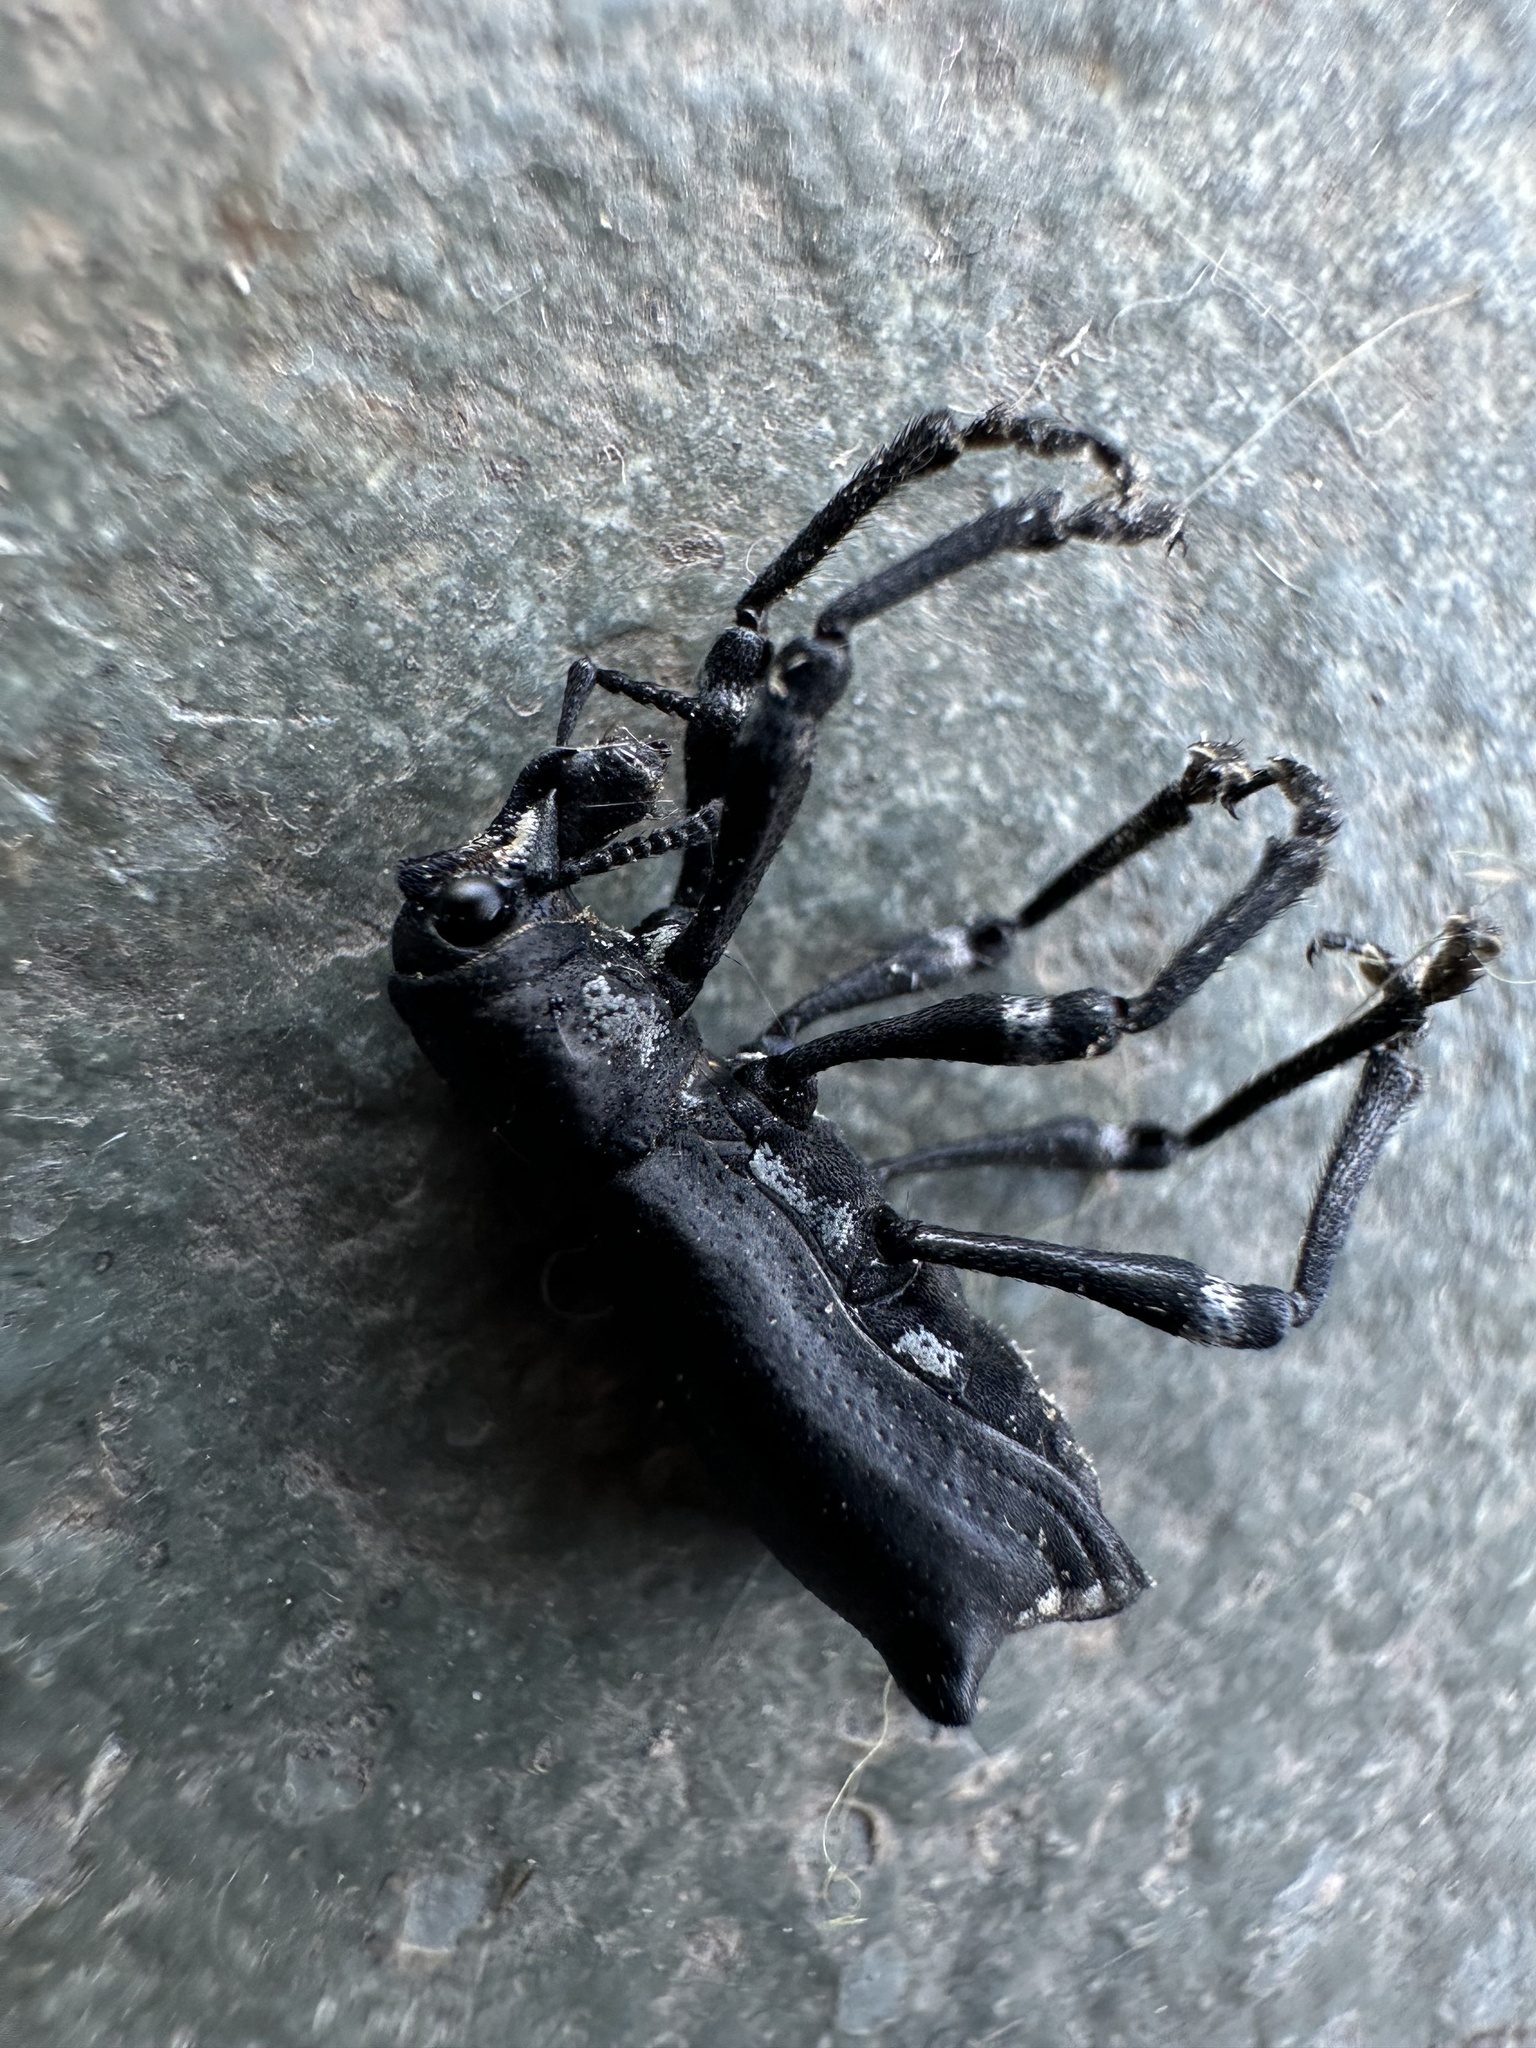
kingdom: Animalia
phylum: Arthropoda
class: Insecta
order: Coleoptera
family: Curculionidae
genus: Aegorhinus
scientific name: Aegorhinus
